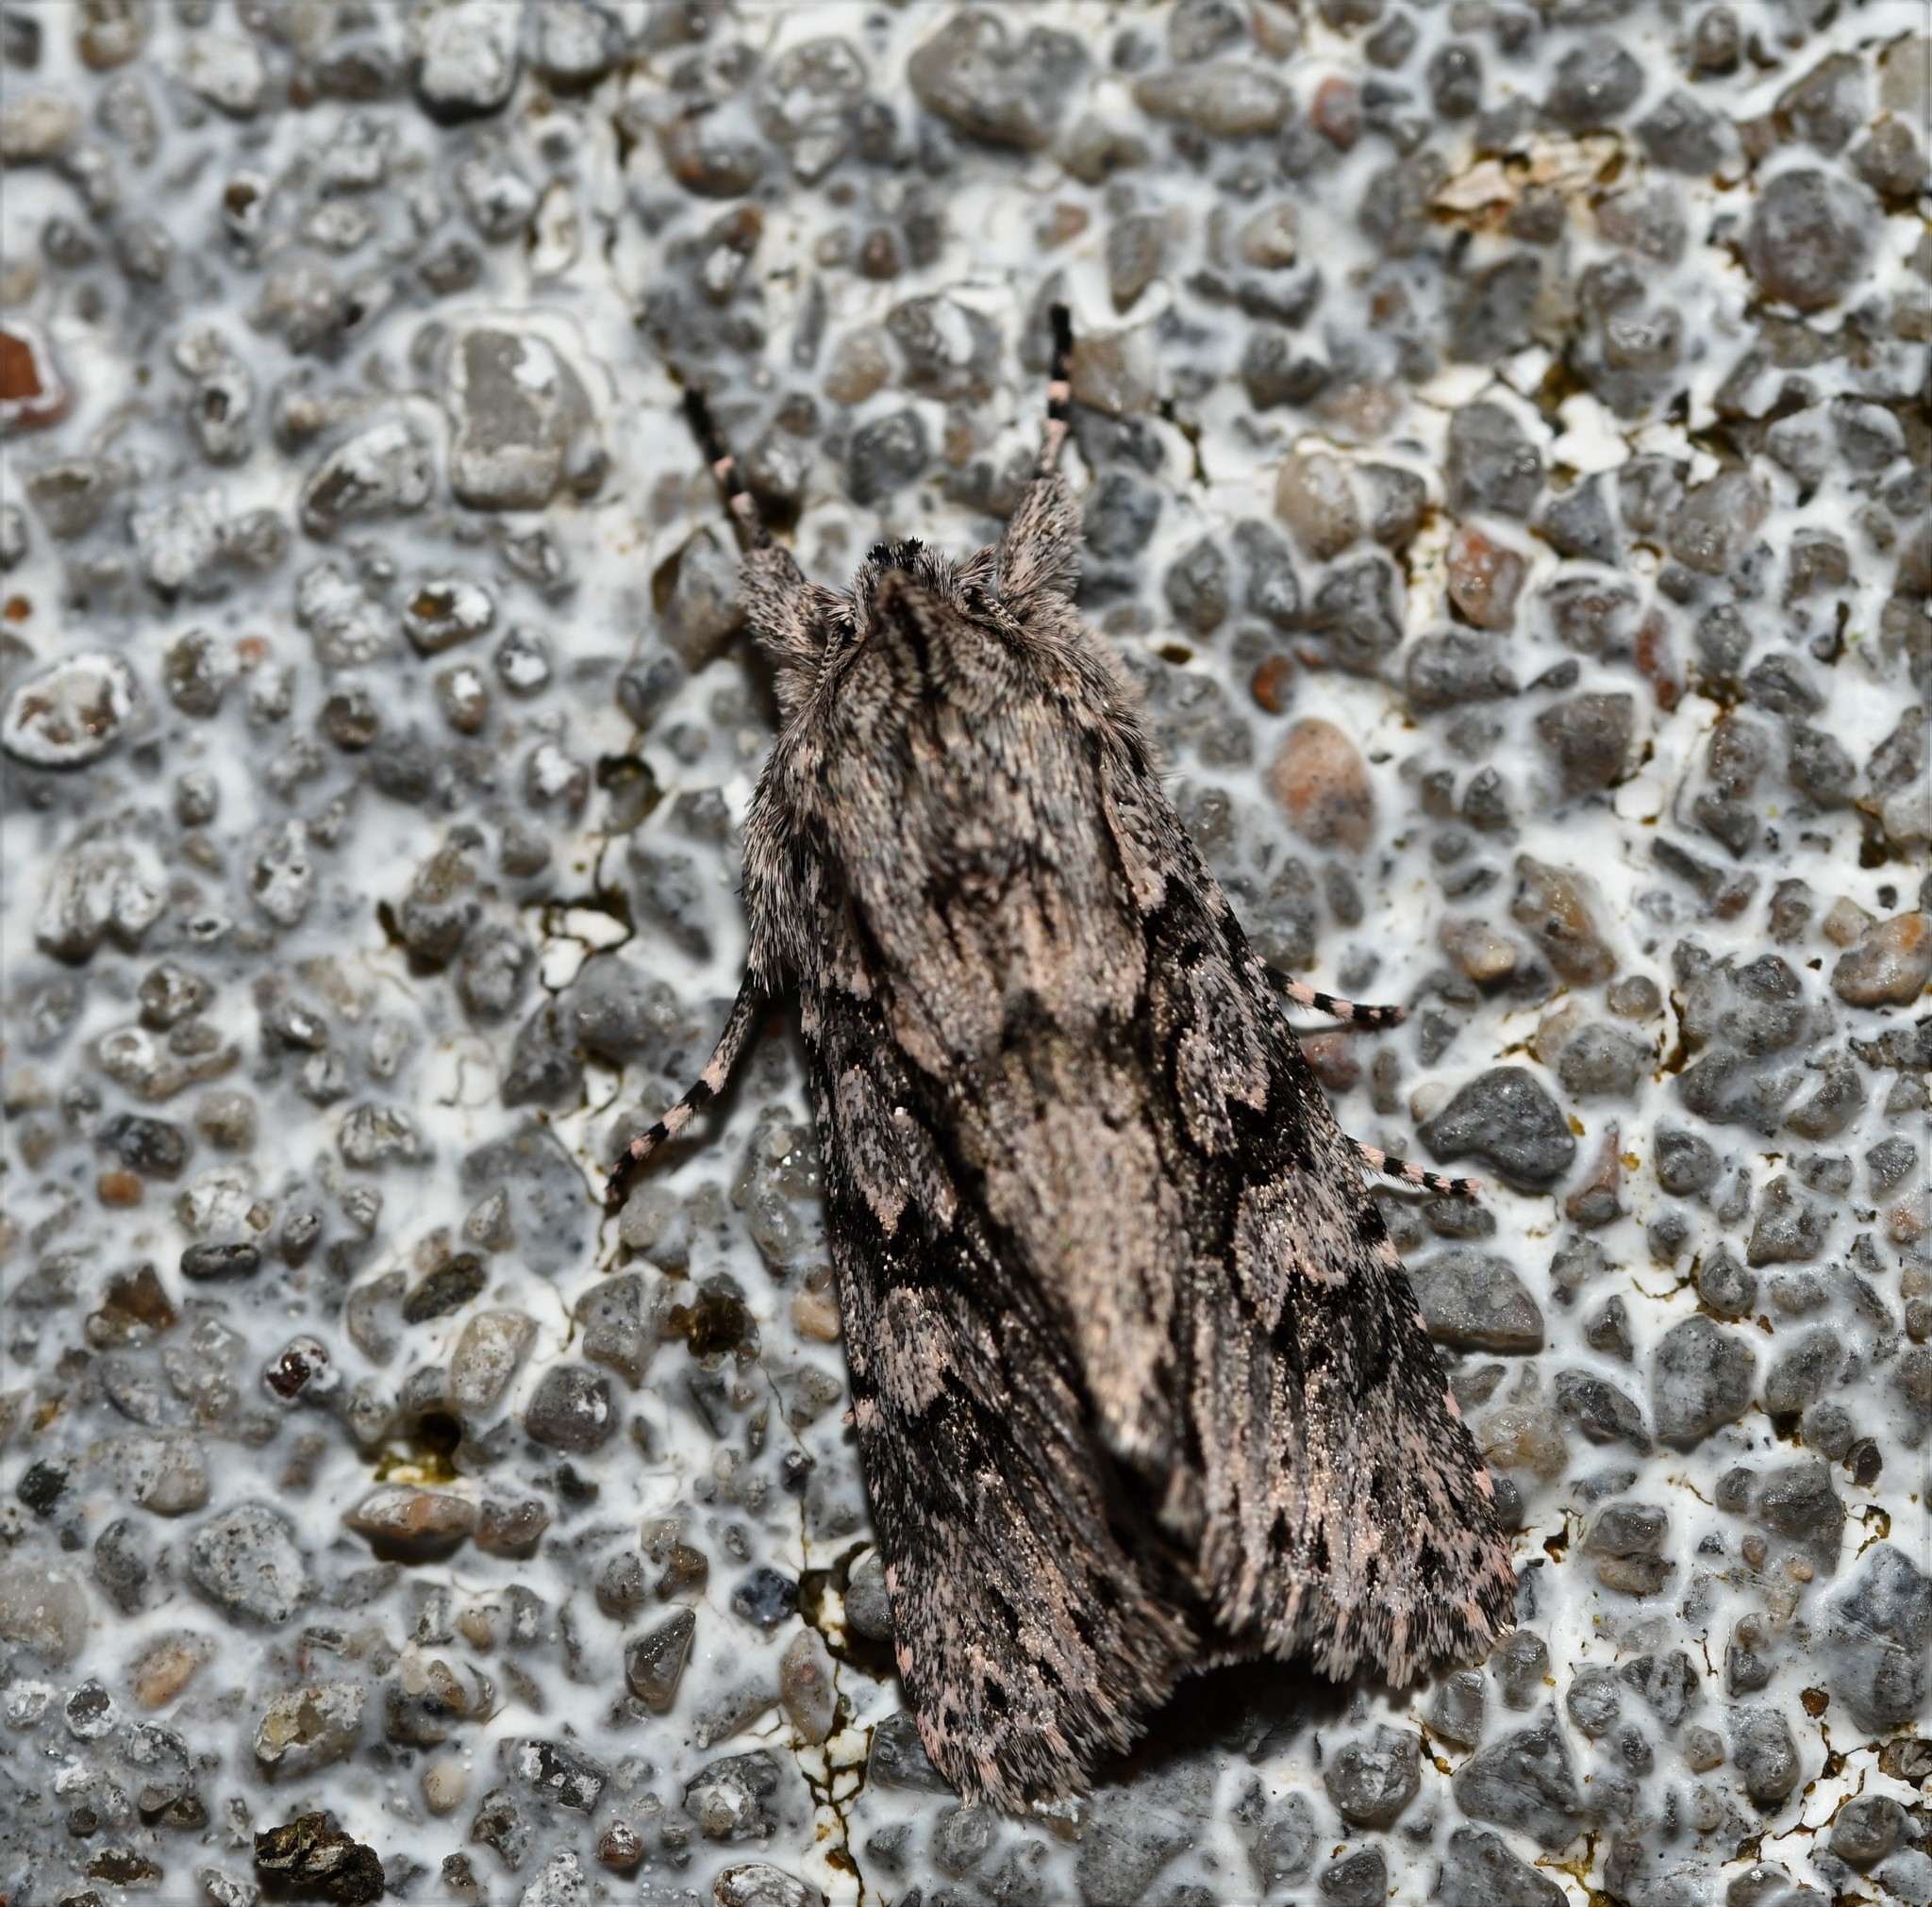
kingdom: Animalia
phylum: Arthropoda
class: Insecta
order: Lepidoptera
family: Noctuidae
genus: Xylocampa
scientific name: Xylocampa areola
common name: Early grey
